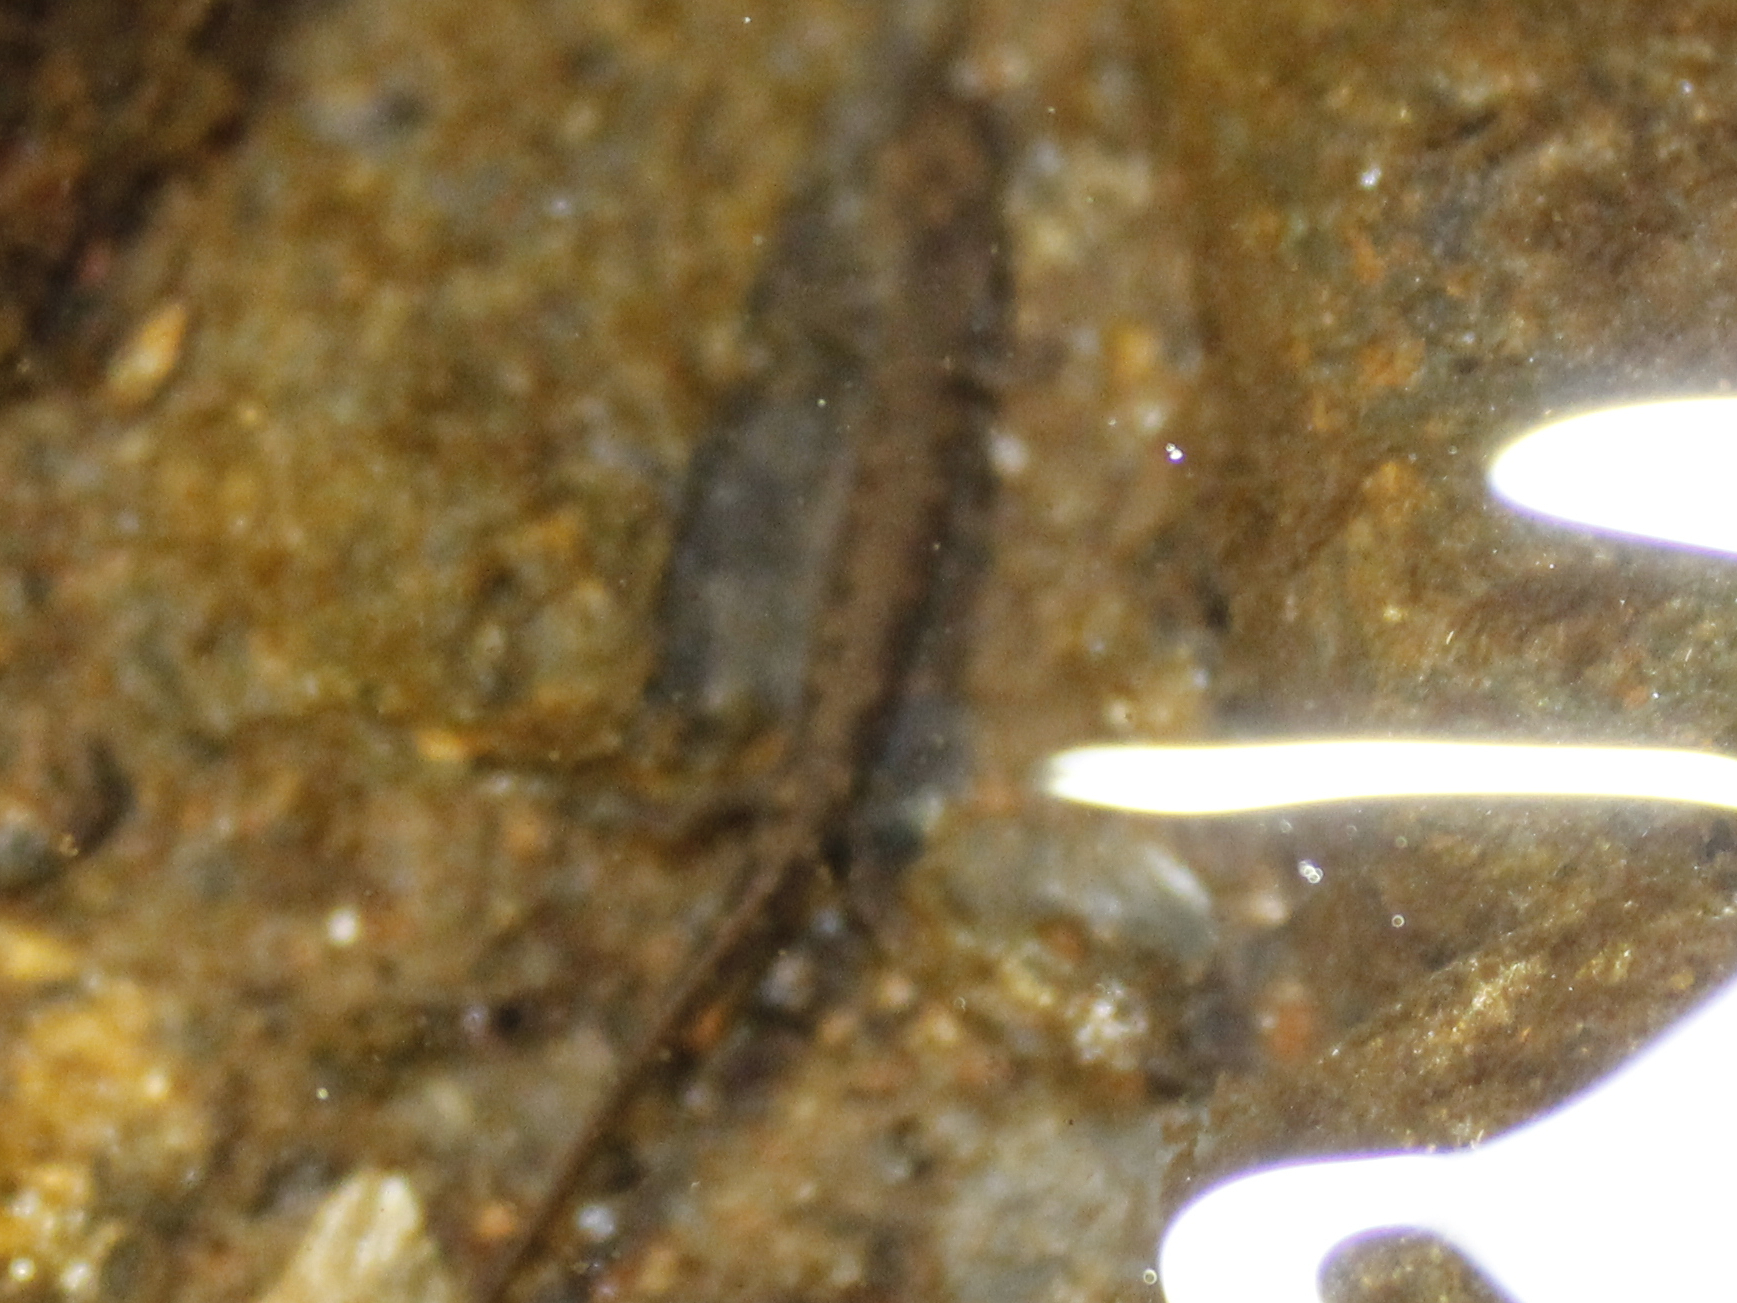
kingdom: Animalia
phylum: Chordata
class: Amphibia
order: Caudata
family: Plethodontidae
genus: Eurycea
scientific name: Eurycea bislineata
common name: Northern two-lined salamander
